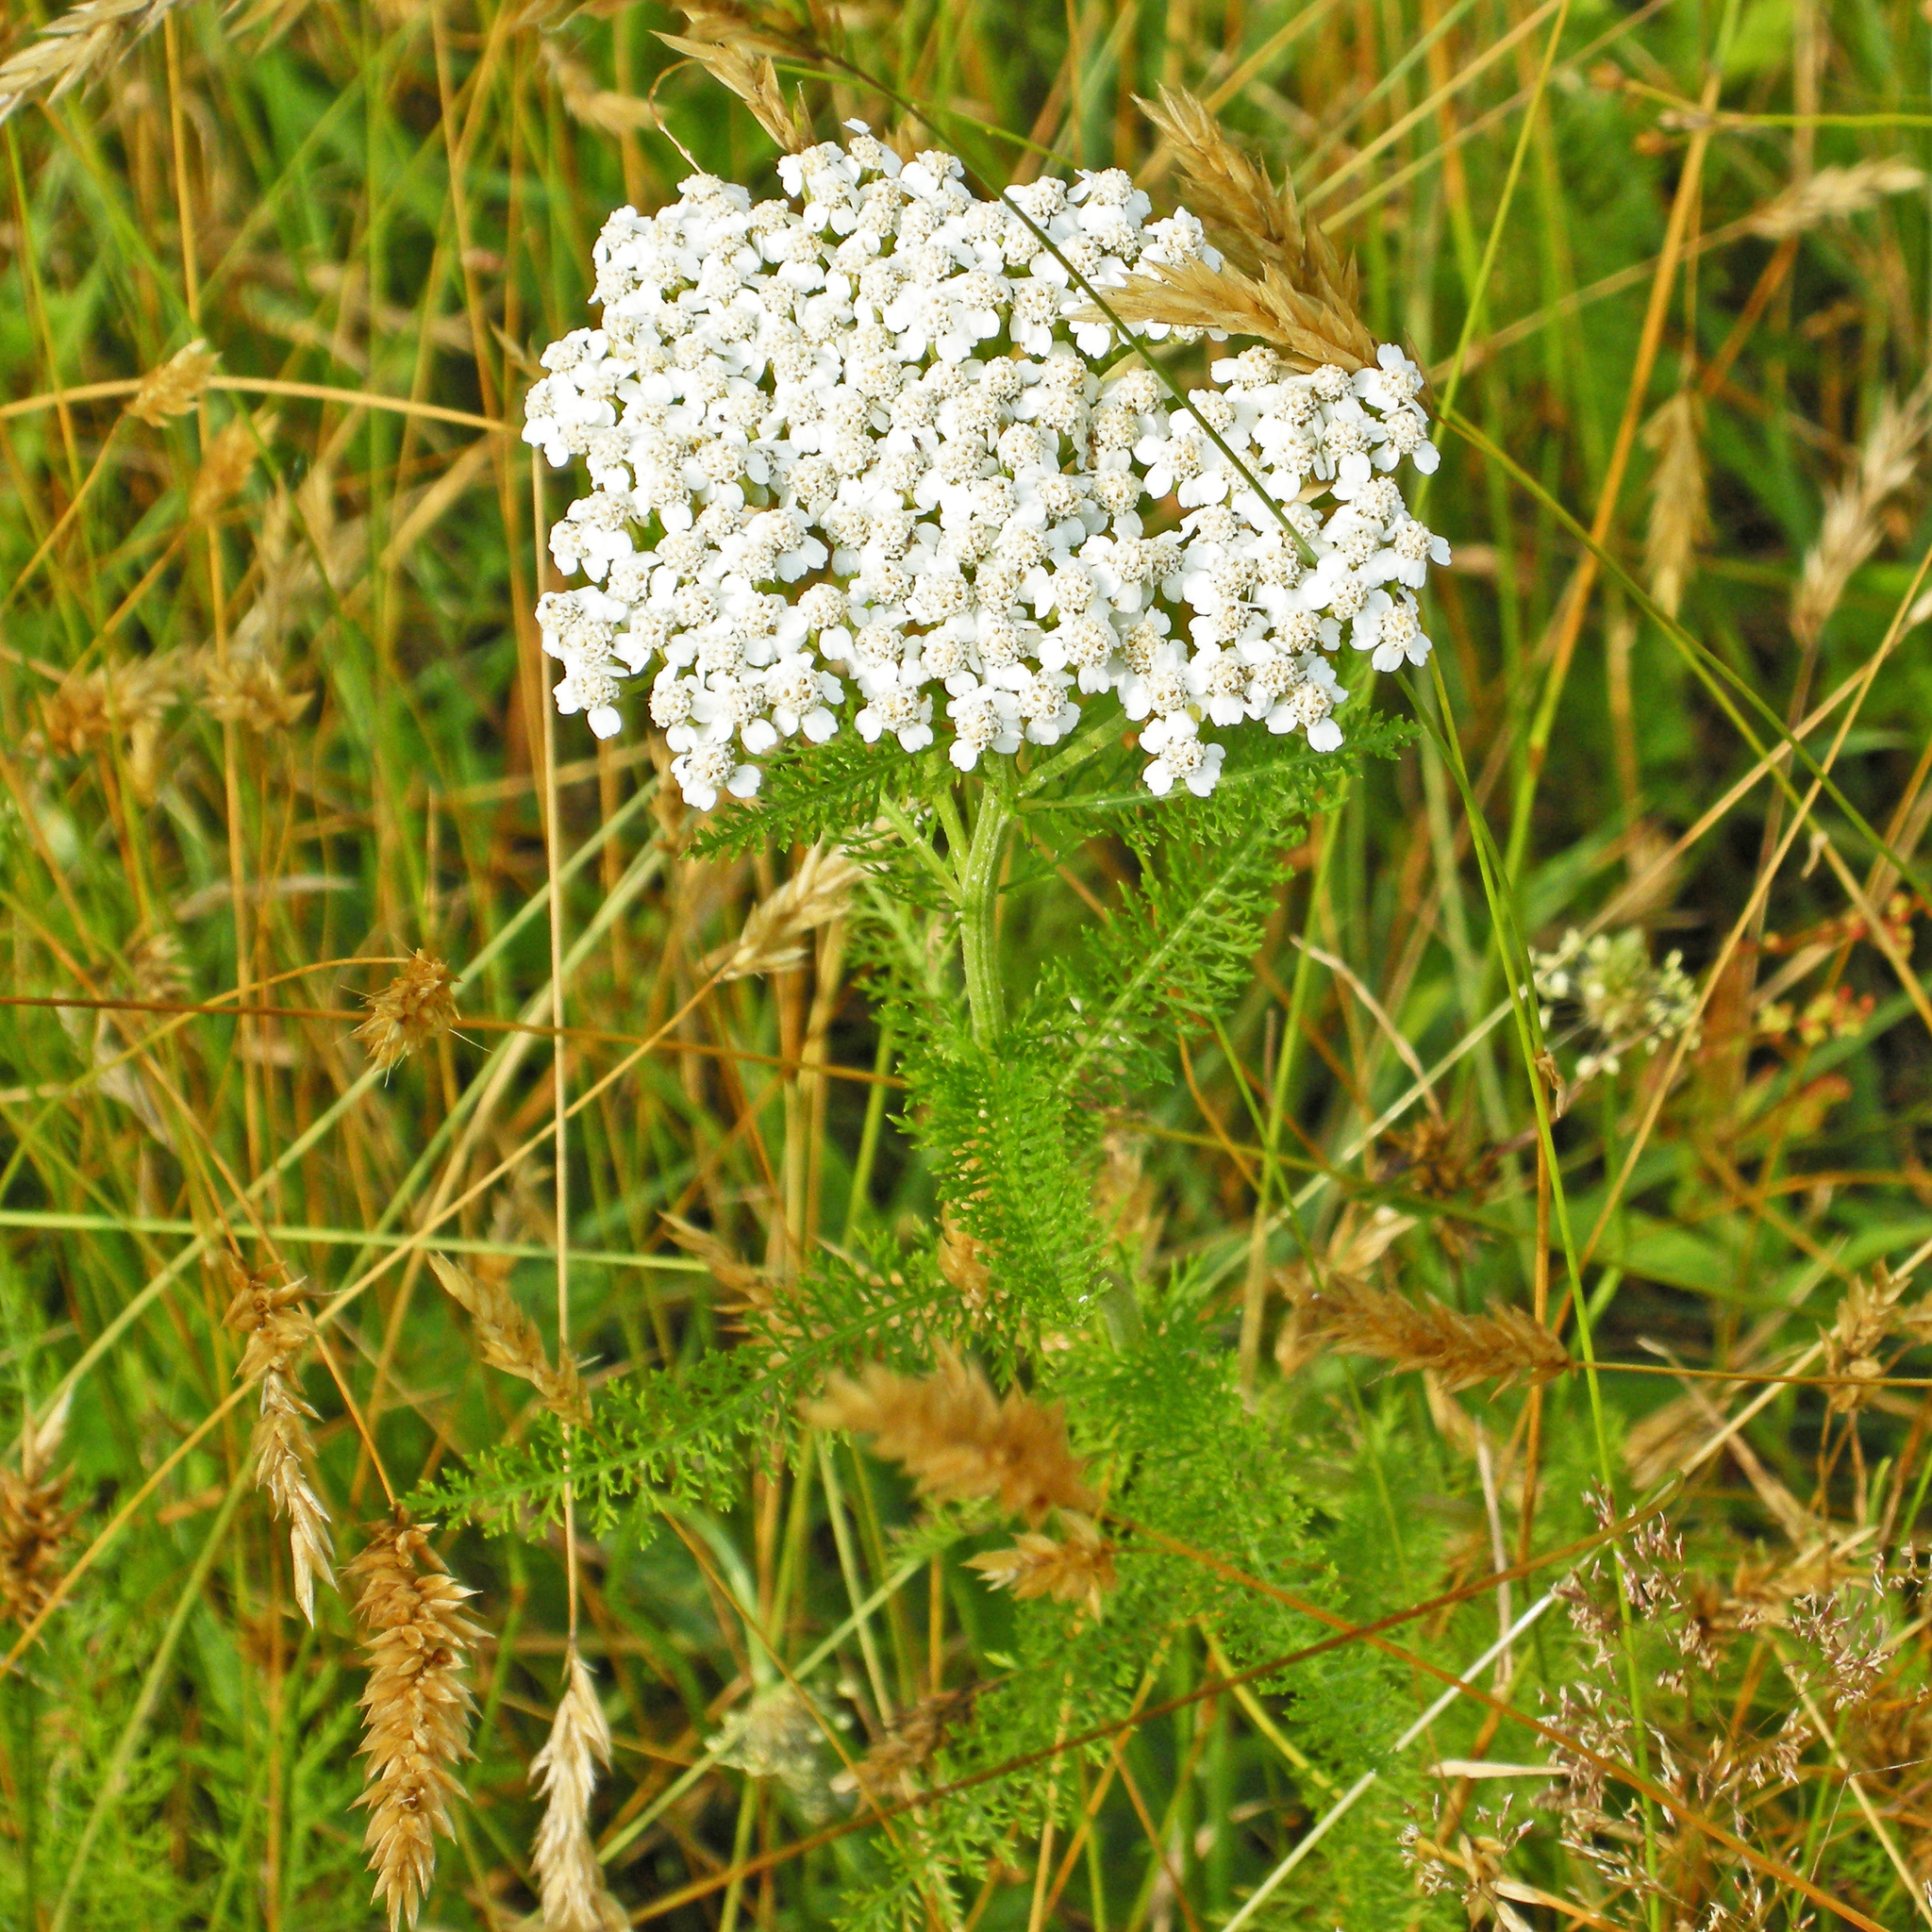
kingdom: Plantae
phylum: Tracheophyta
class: Magnoliopsida
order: Asterales
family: Asteraceae
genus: Achillea
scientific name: Achillea millefolium
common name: Yarrow
